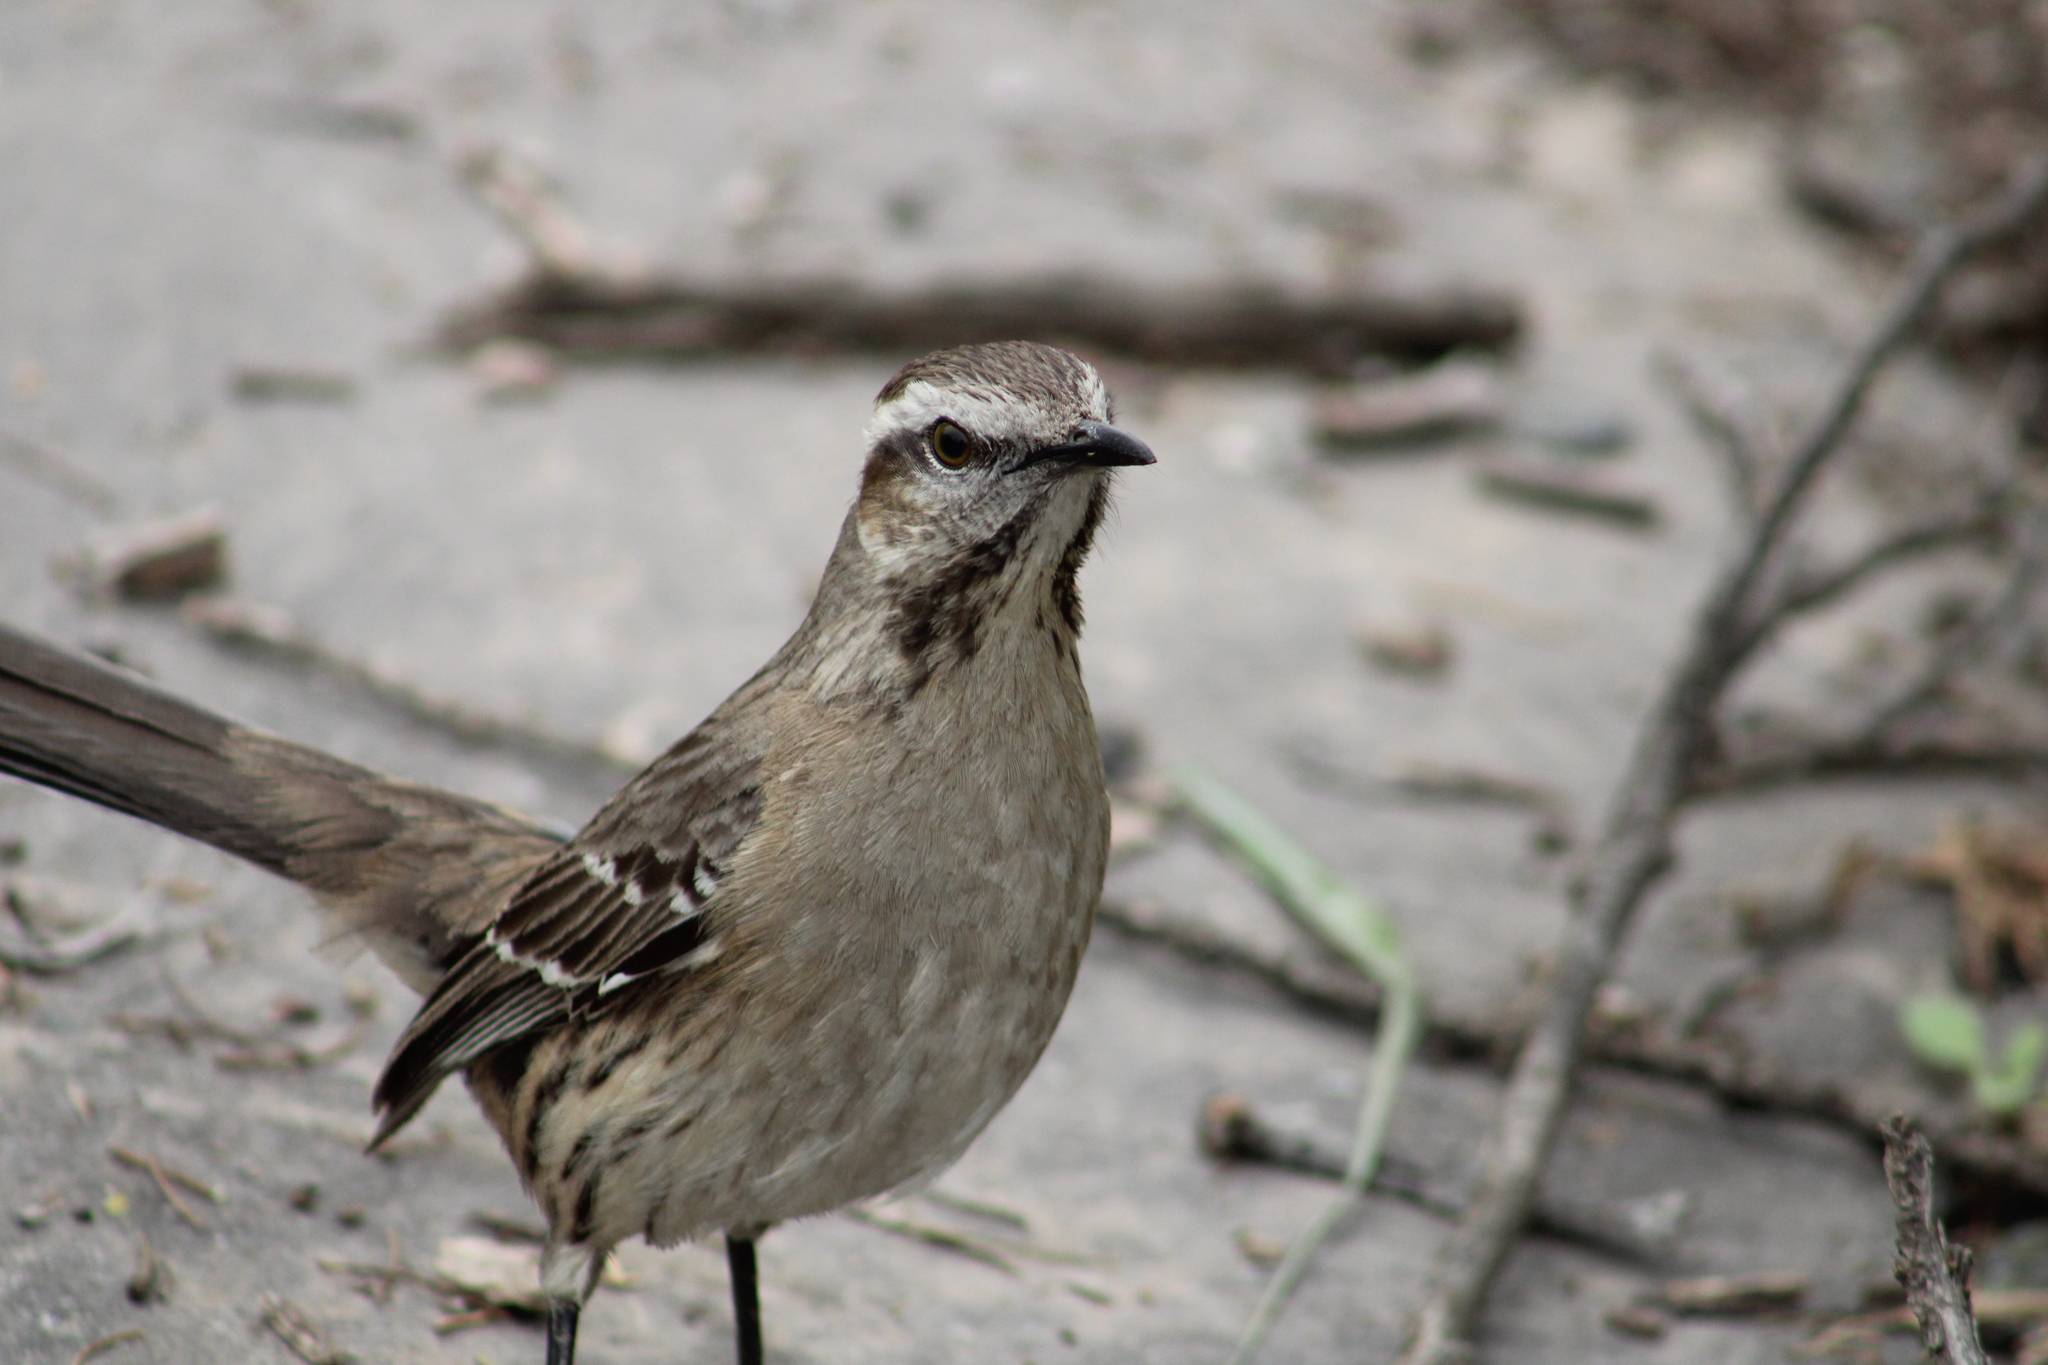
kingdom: Animalia
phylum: Chordata
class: Aves
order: Passeriformes
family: Mimidae
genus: Mimus
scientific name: Mimus thenca
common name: Chilean mockingbird
